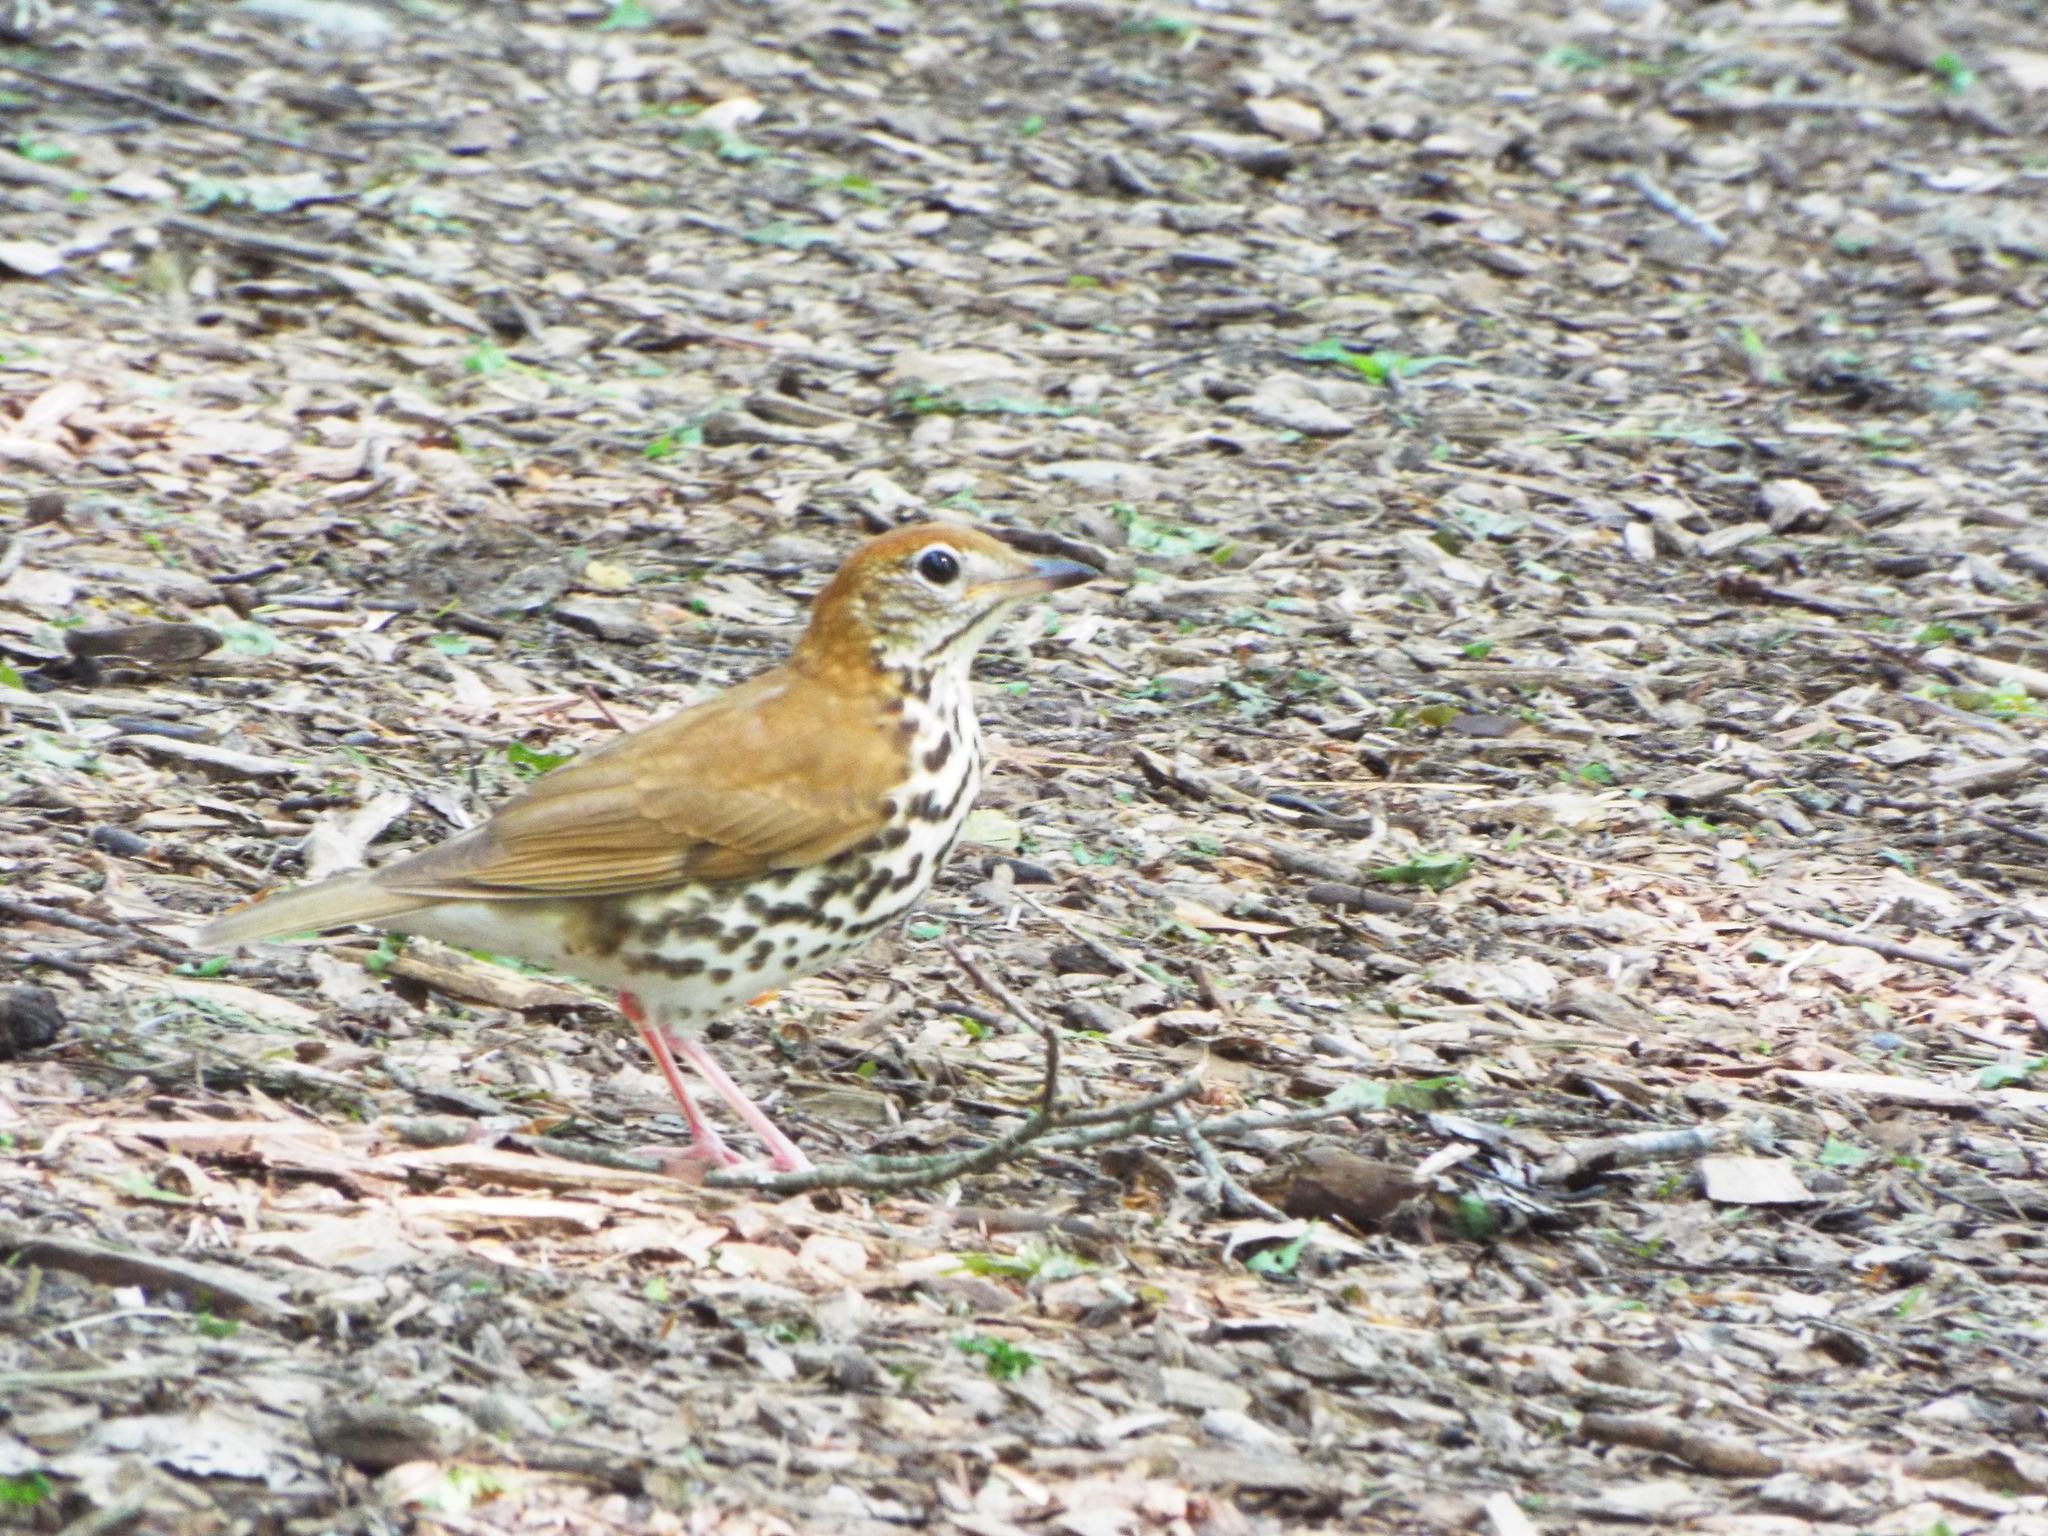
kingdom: Animalia
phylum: Chordata
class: Aves
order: Passeriformes
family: Turdidae
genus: Hylocichla
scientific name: Hylocichla mustelina
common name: Wood thrush
